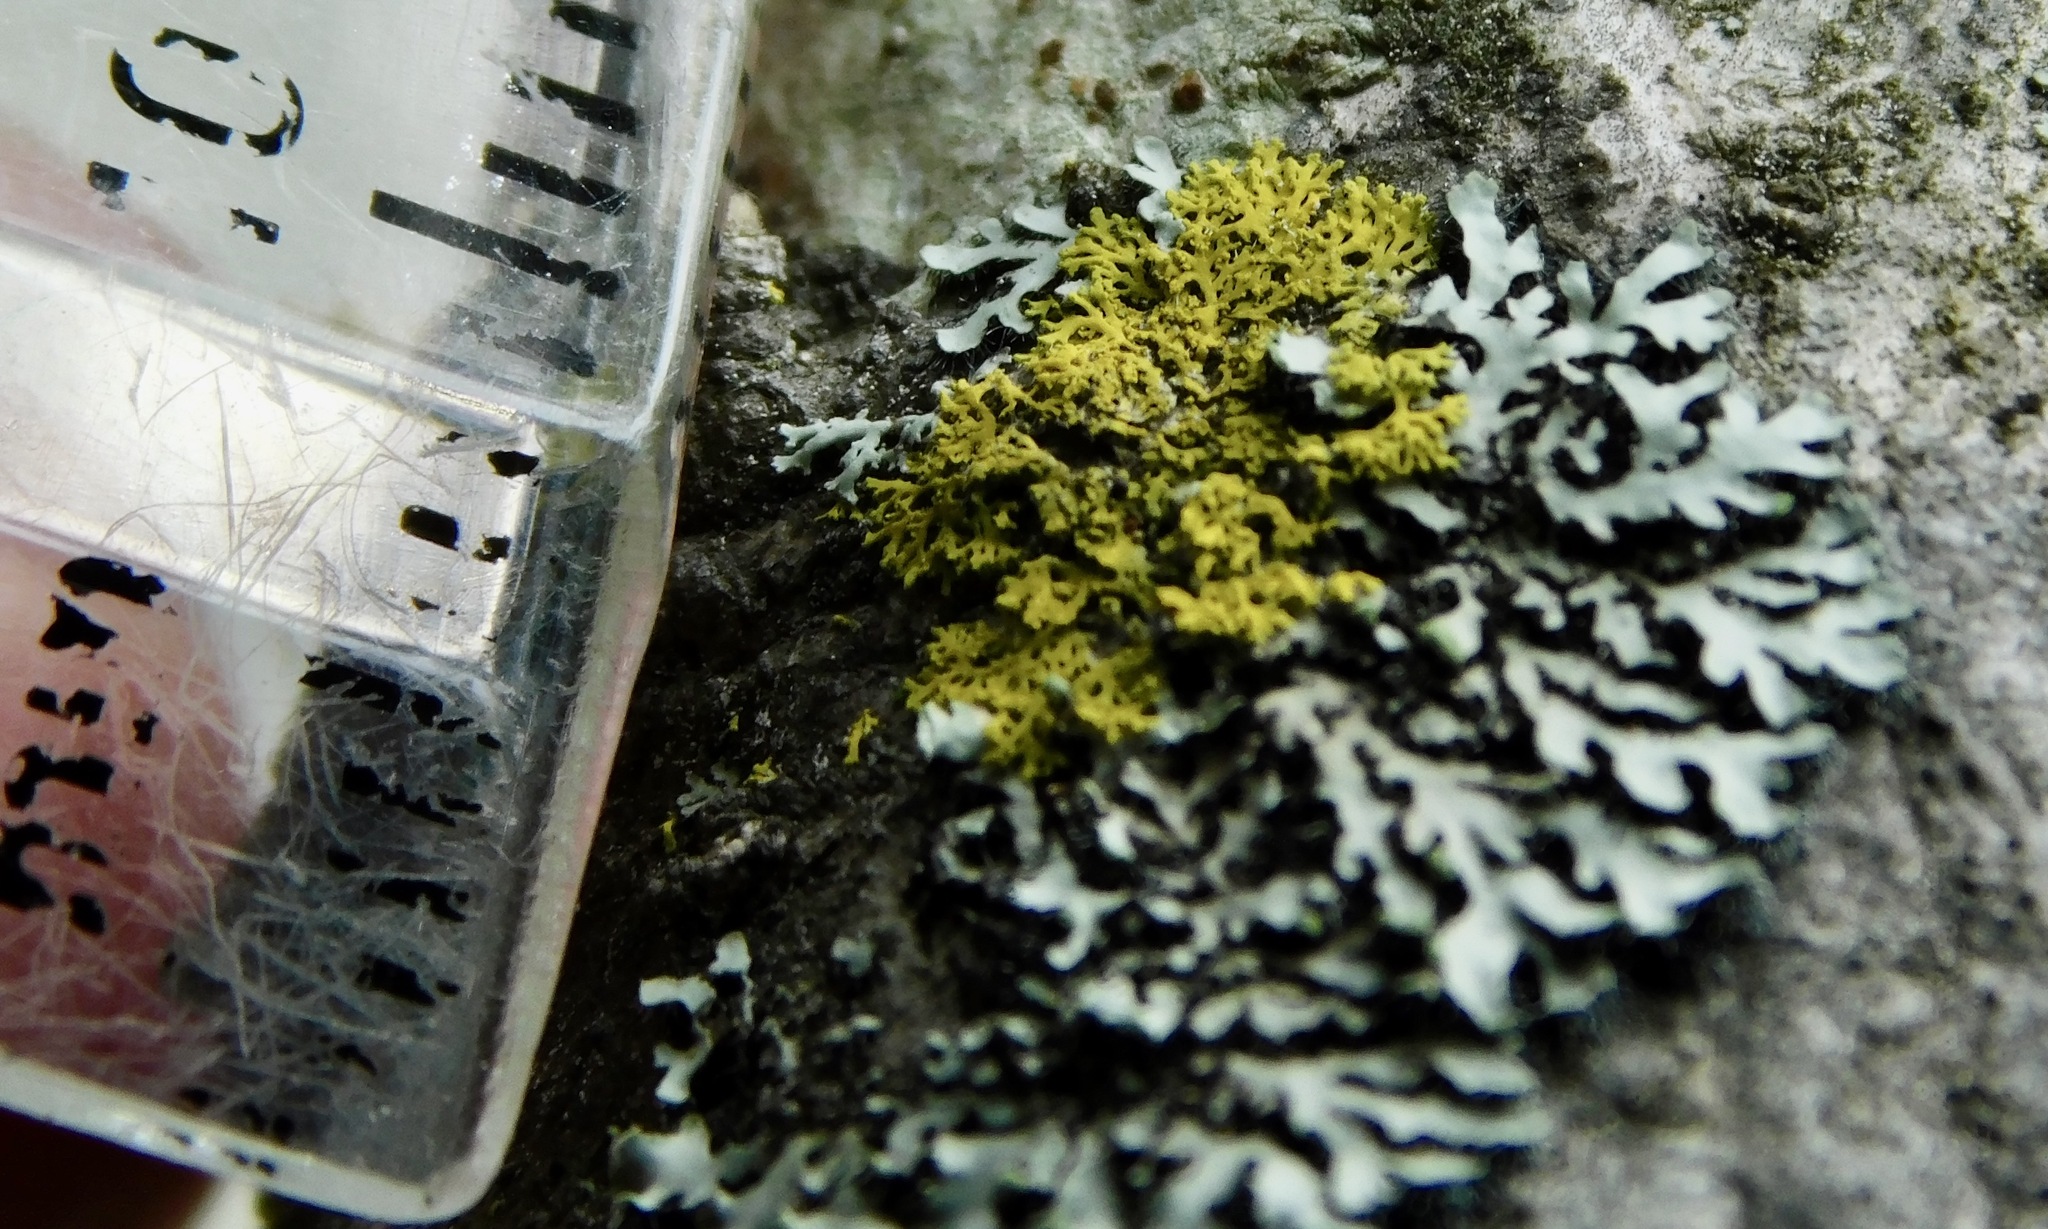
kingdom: Fungi
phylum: Ascomycota
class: Candelariomycetes
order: Candelariales
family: Candelariaceae
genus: Candelaria
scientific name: Candelaria concolor
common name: Candleflame lichen
